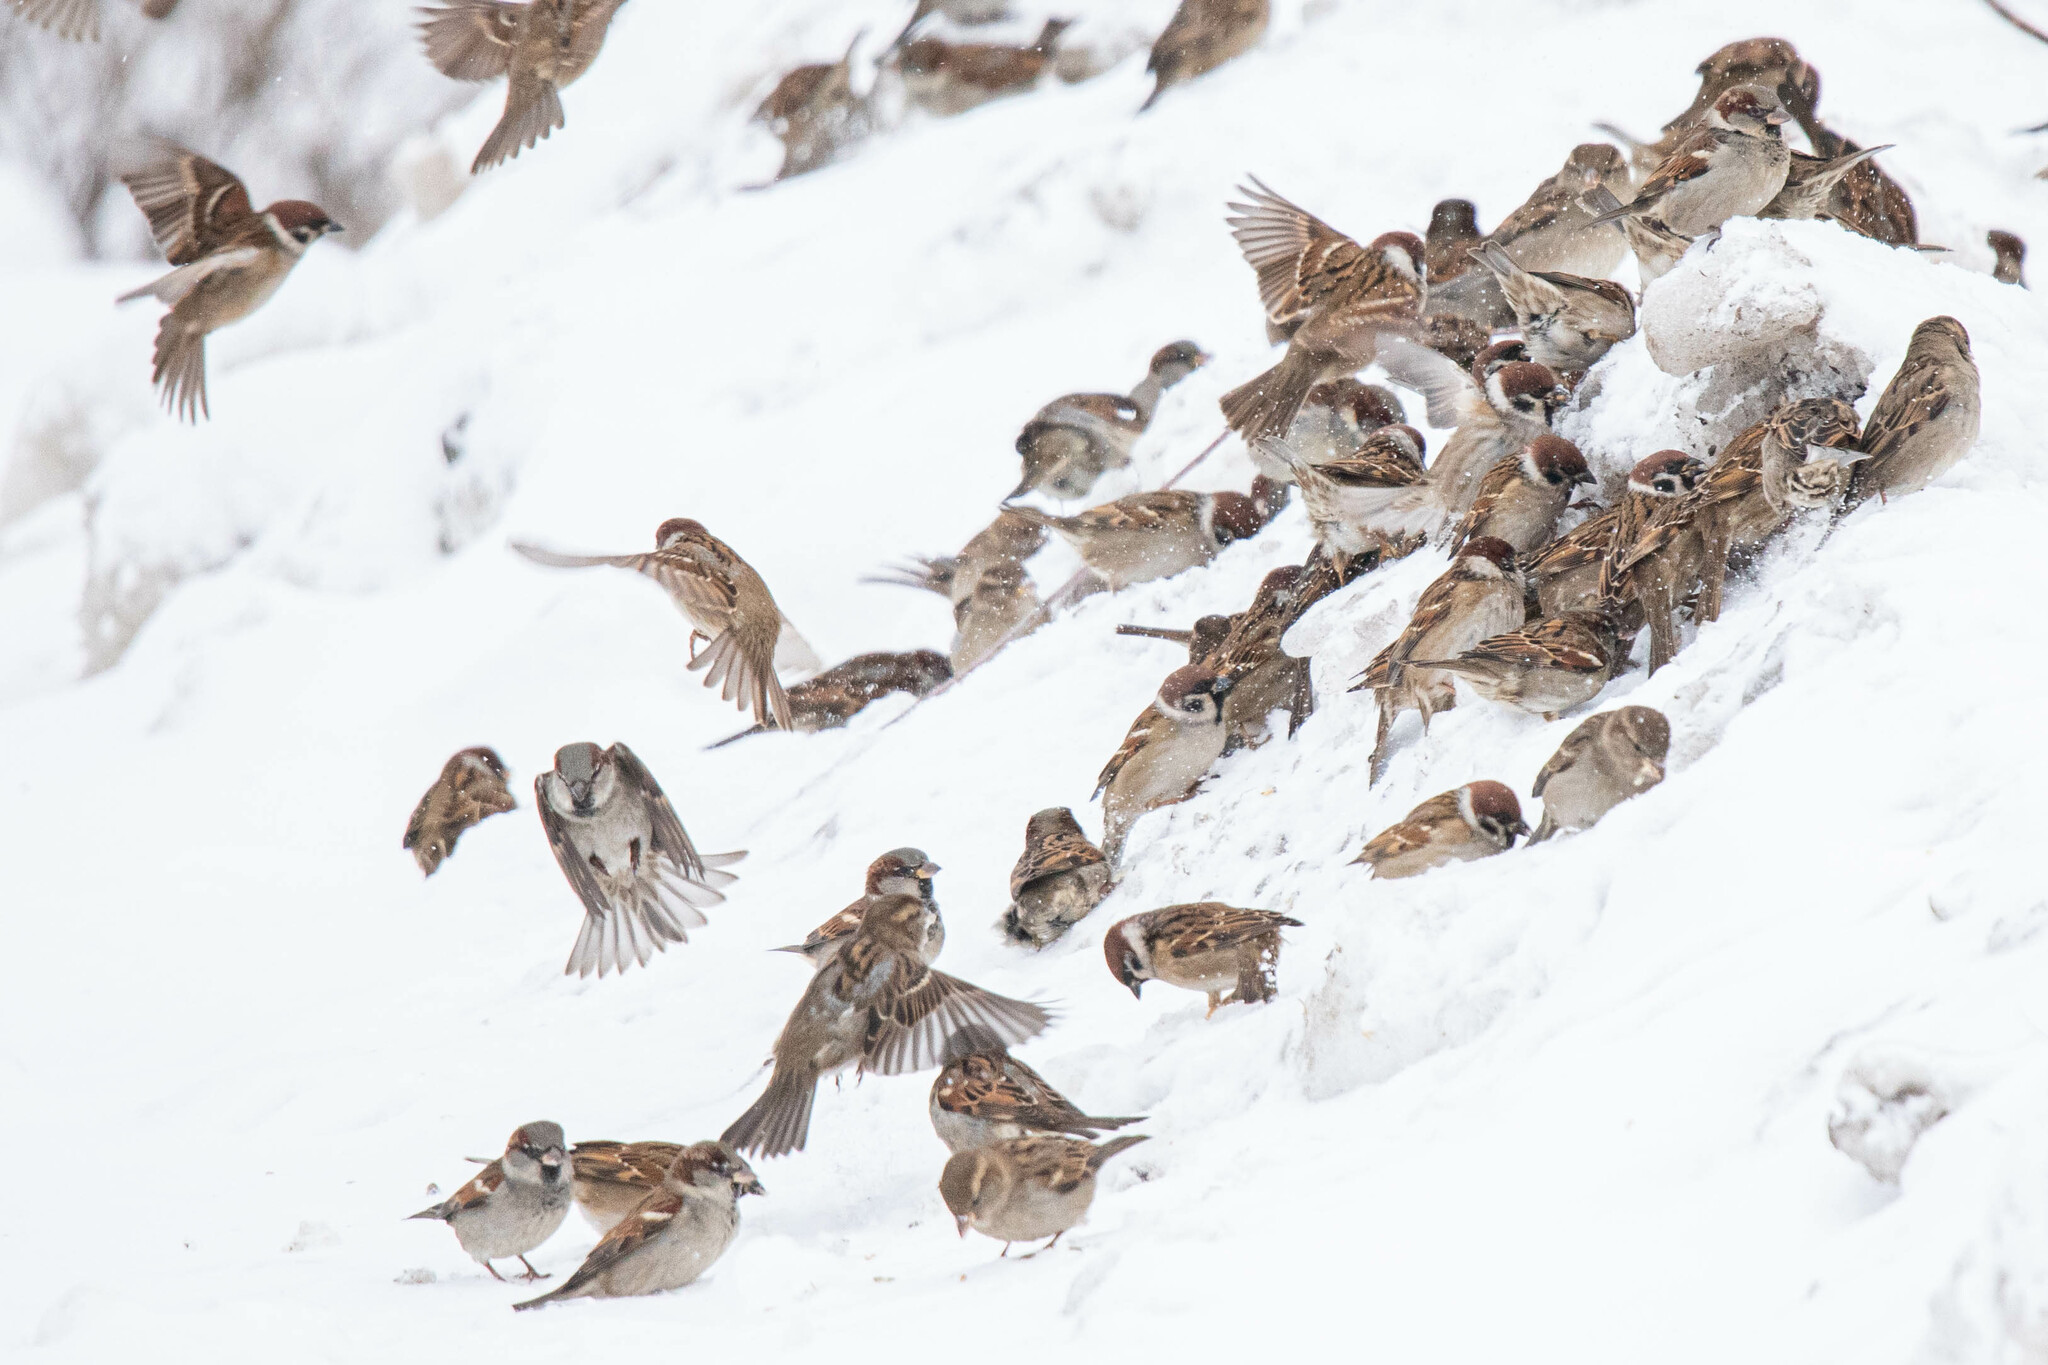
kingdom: Animalia
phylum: Chordata
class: Aves
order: Passeriformes
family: Passeridae
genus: Passer
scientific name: Passer domesticus
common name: House sparrow
